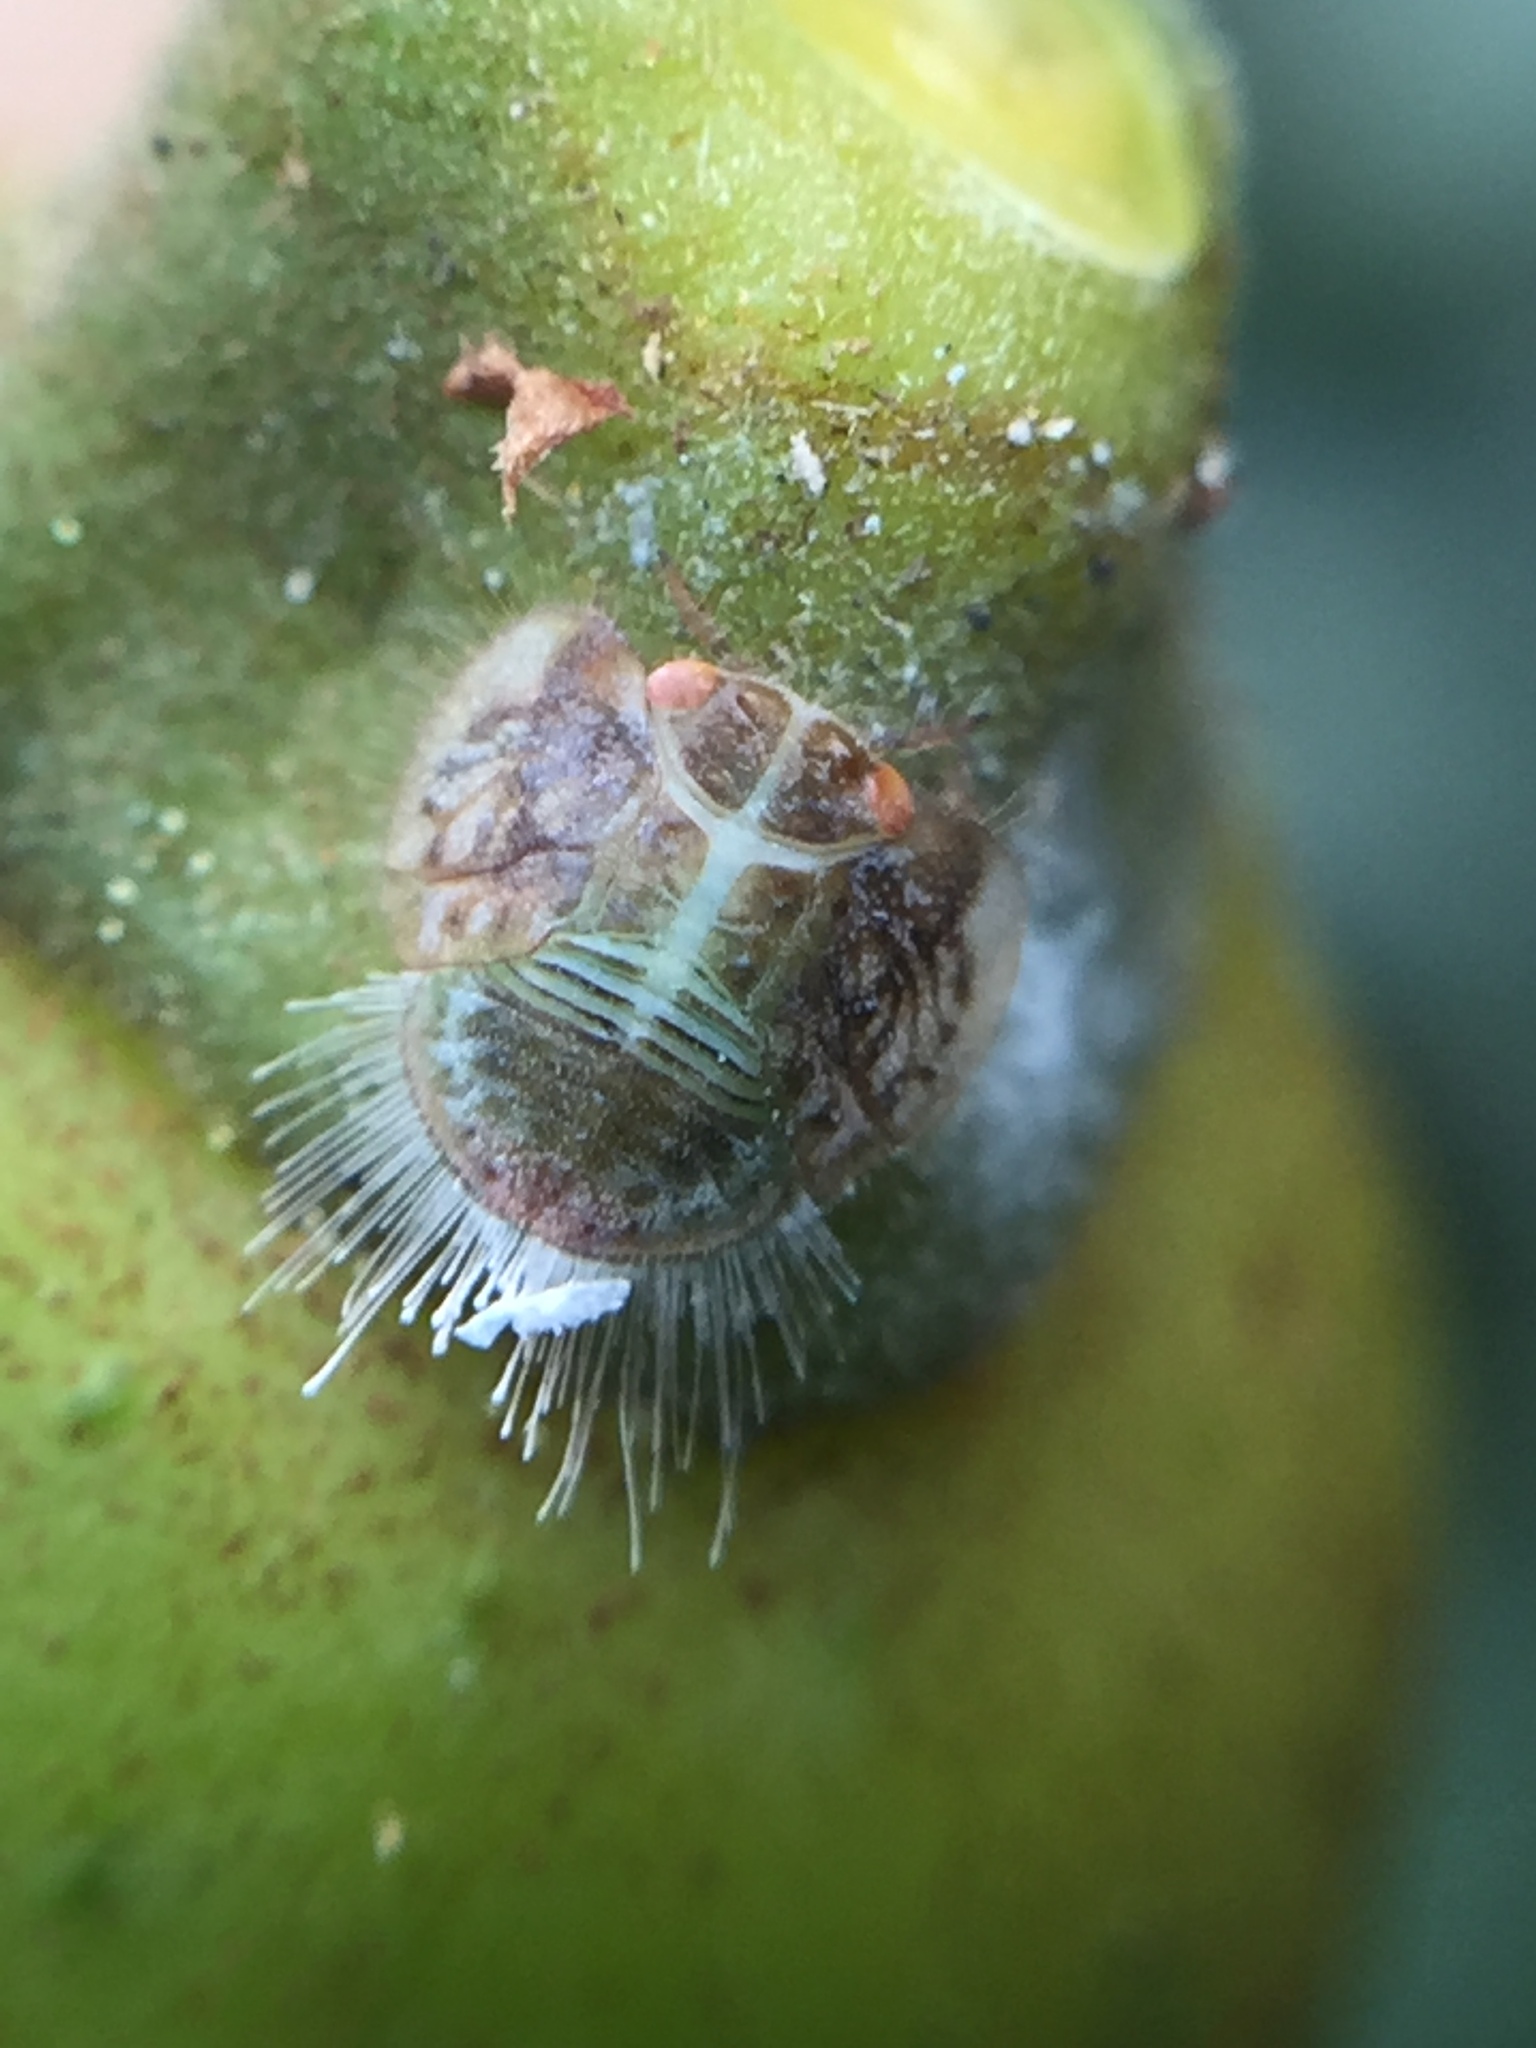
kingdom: Animalia
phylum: Arthropoda
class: Insecta
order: Hemiptera
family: Homotomidae
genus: Mycopsylla
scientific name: Mycopsylla obliqua
